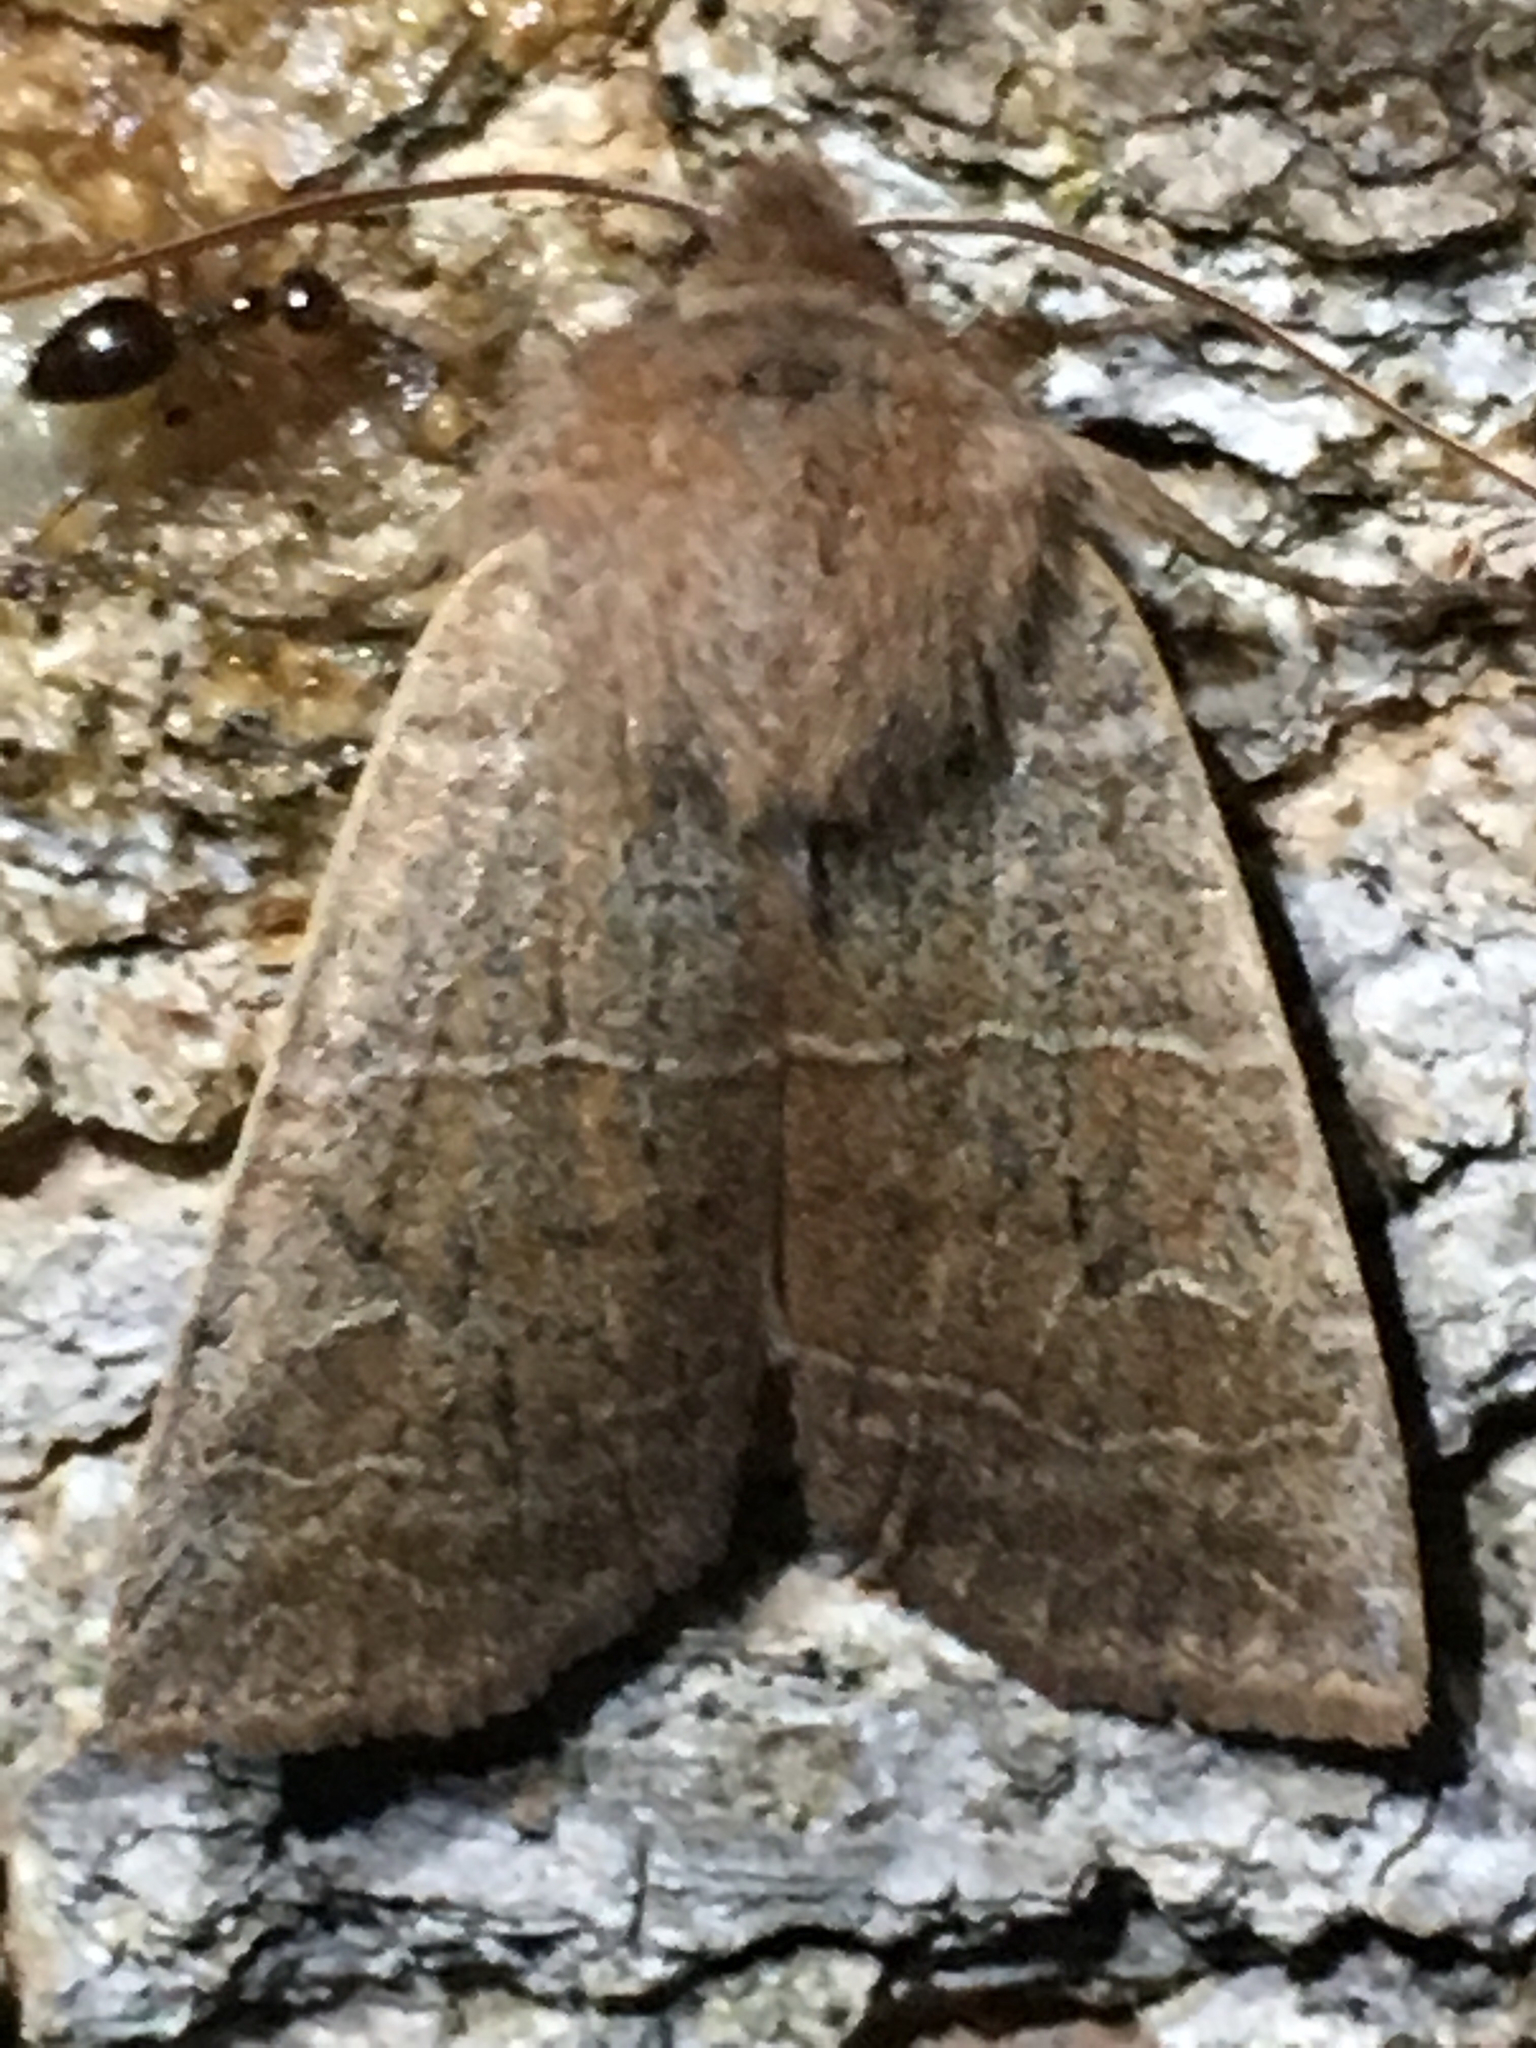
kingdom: Animalia
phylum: Arthropoda
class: Insecta
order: Lepidoptera
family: Noctuidae
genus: Eupsilia
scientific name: Eupsilia morrisoni
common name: Morrison's sallow
